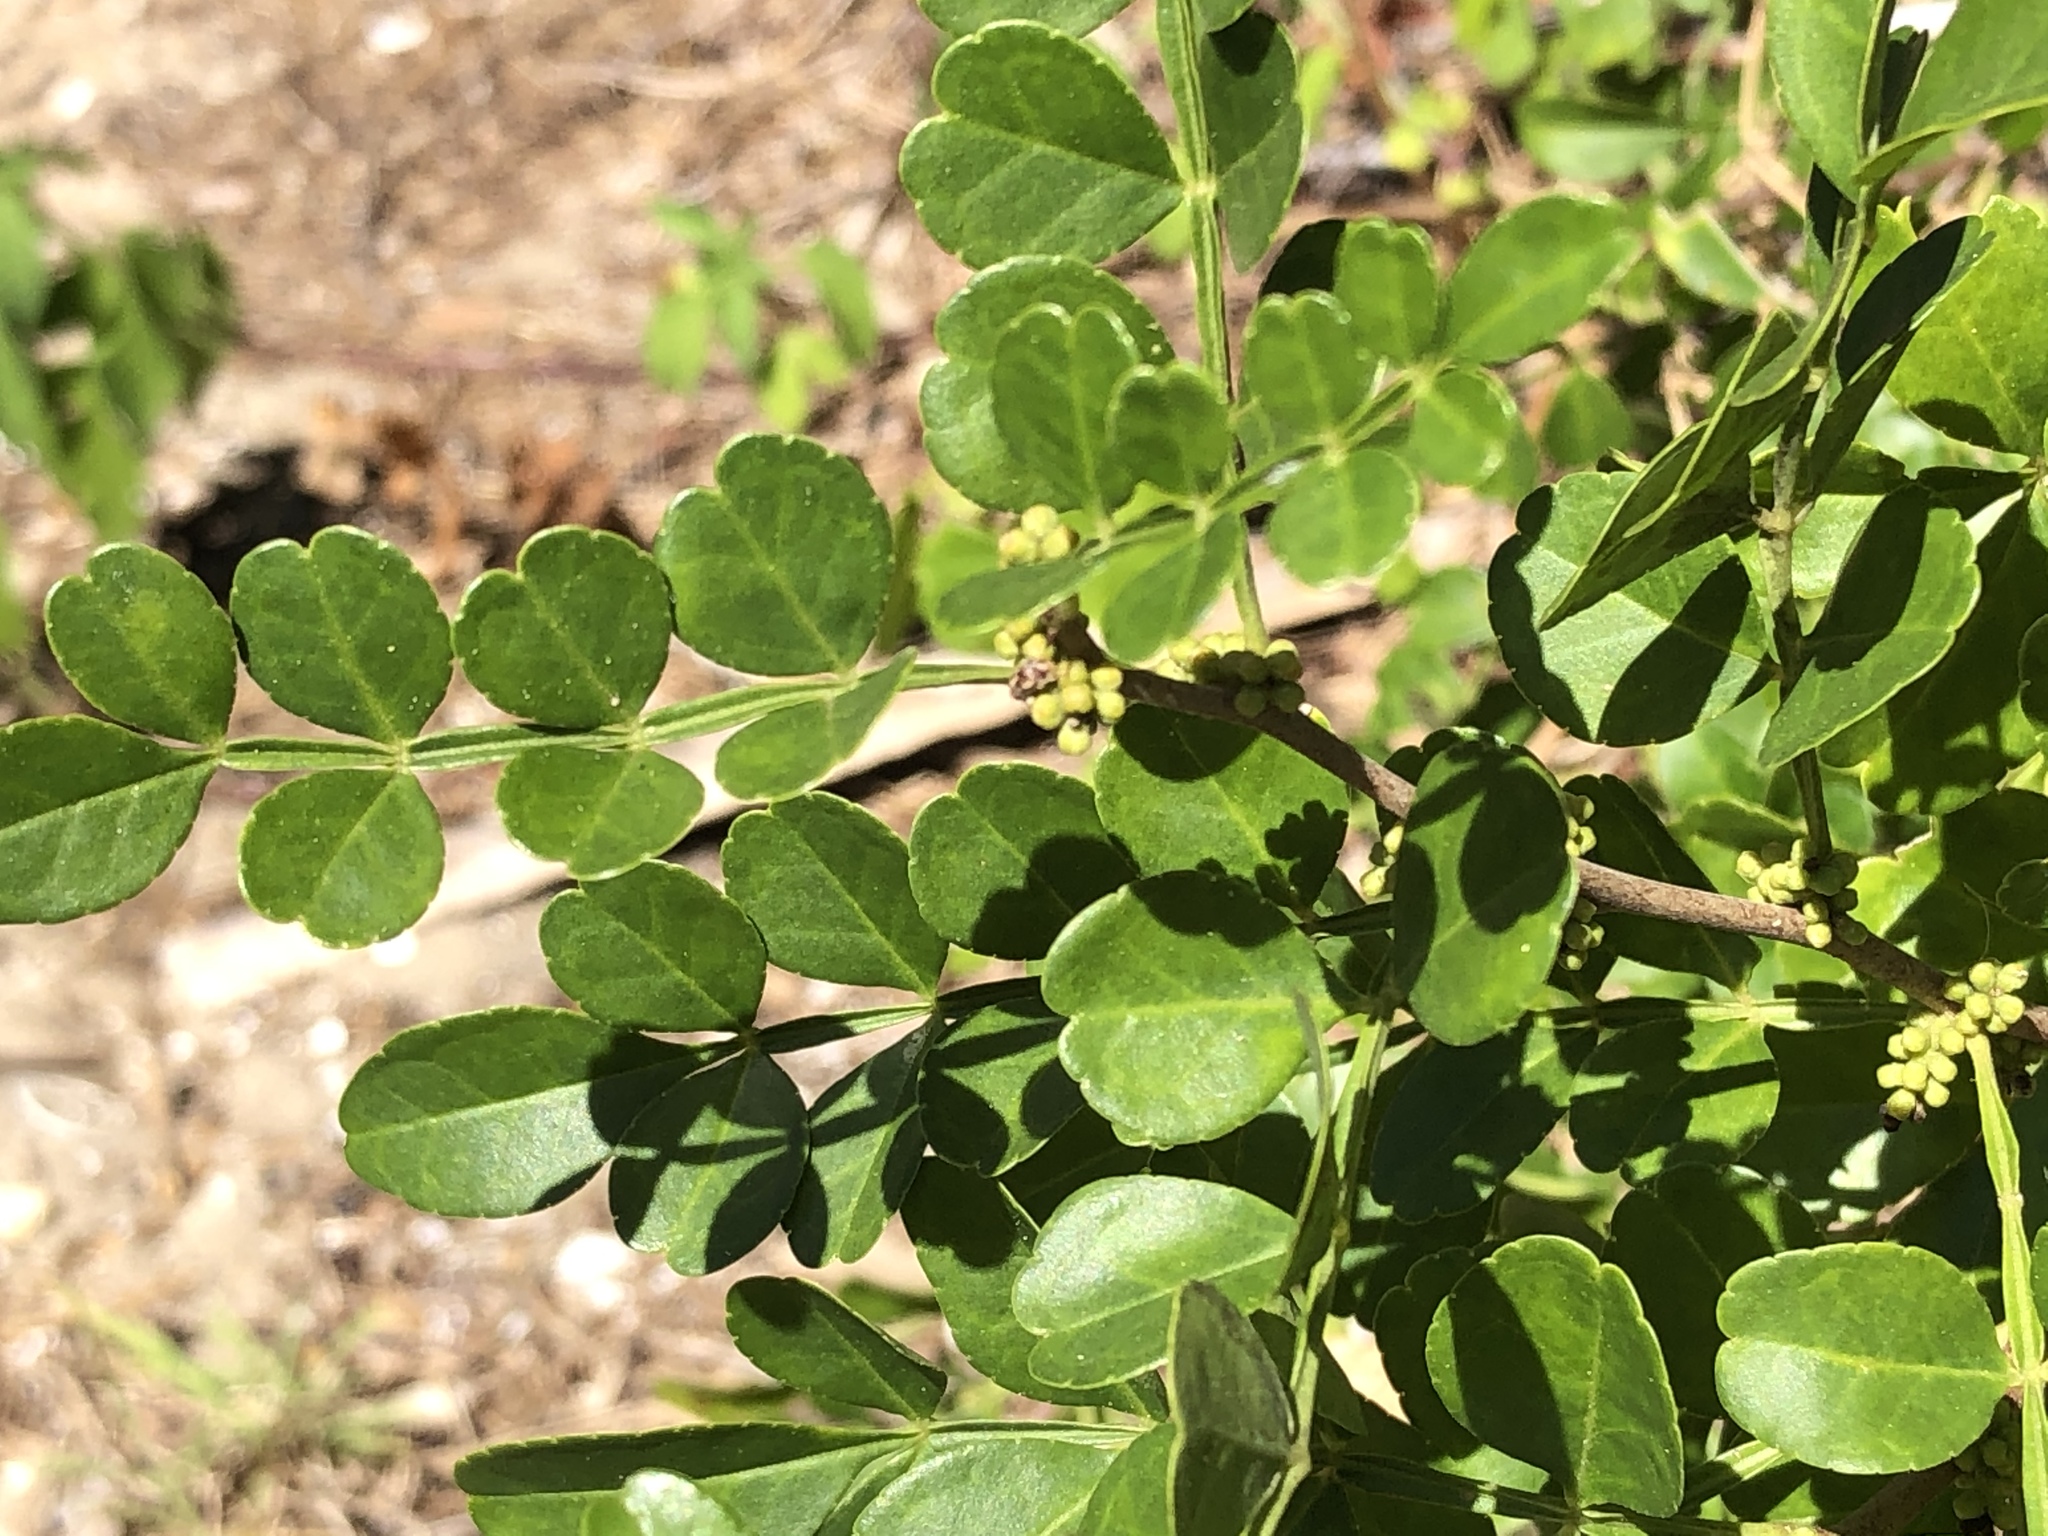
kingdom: Plantae
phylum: Tracheophyta
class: Magnoliopsida
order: Sapindales
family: Rutaceae
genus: Zanthoxylum
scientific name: Zanthoxylum fagara
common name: Lime prickly-ash
